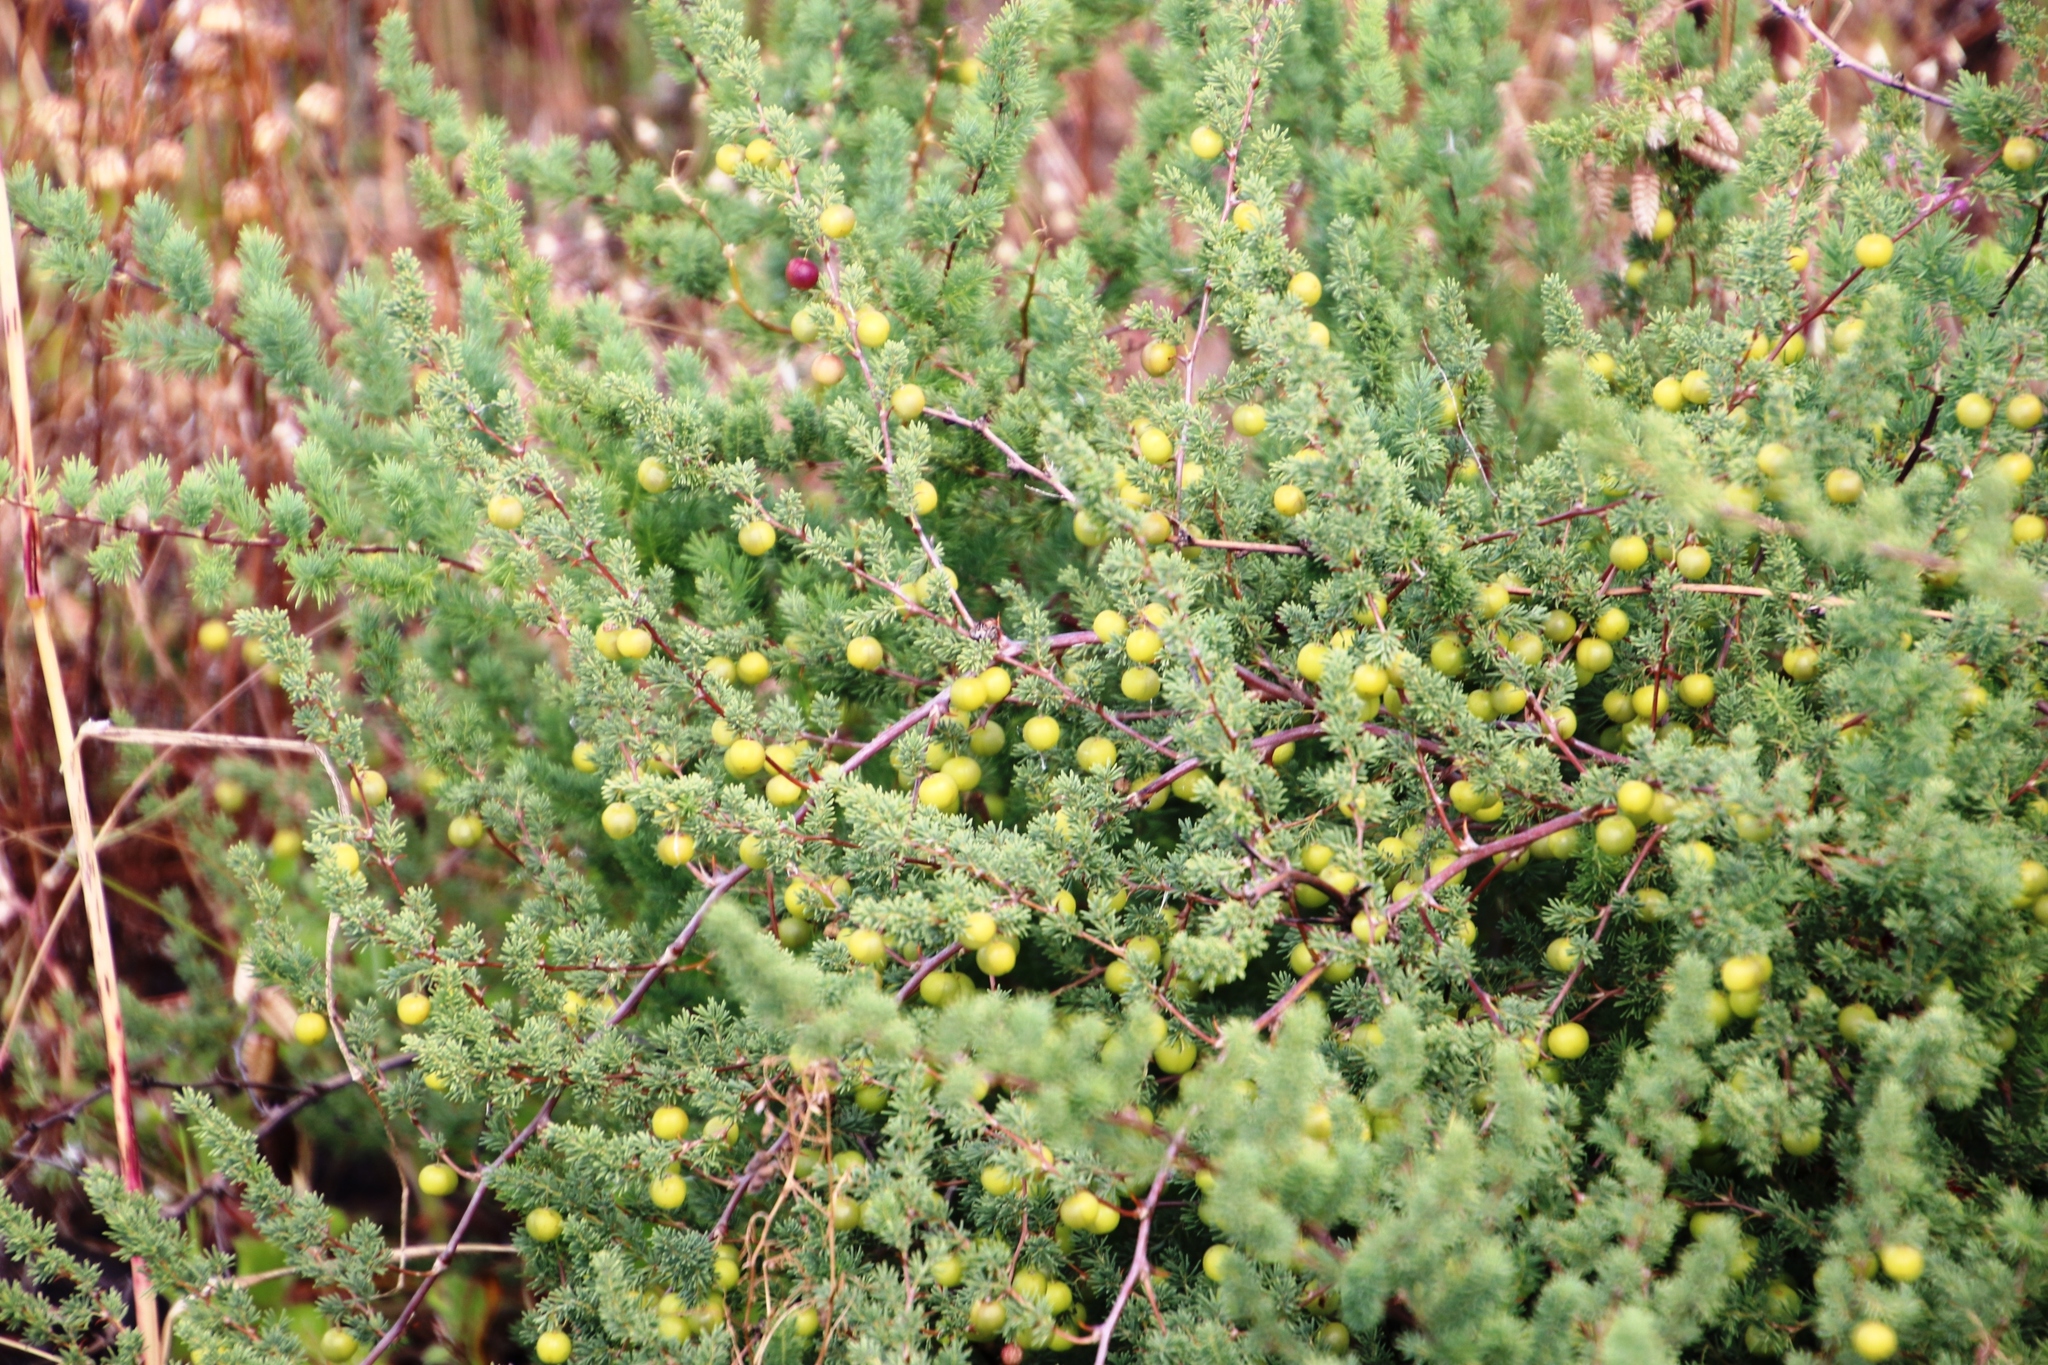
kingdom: Plantae
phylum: Tracheophyta
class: Liliopsida
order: Asparagales
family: Asparagaceae
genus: Asparagus
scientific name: Asparagus rubicundus
